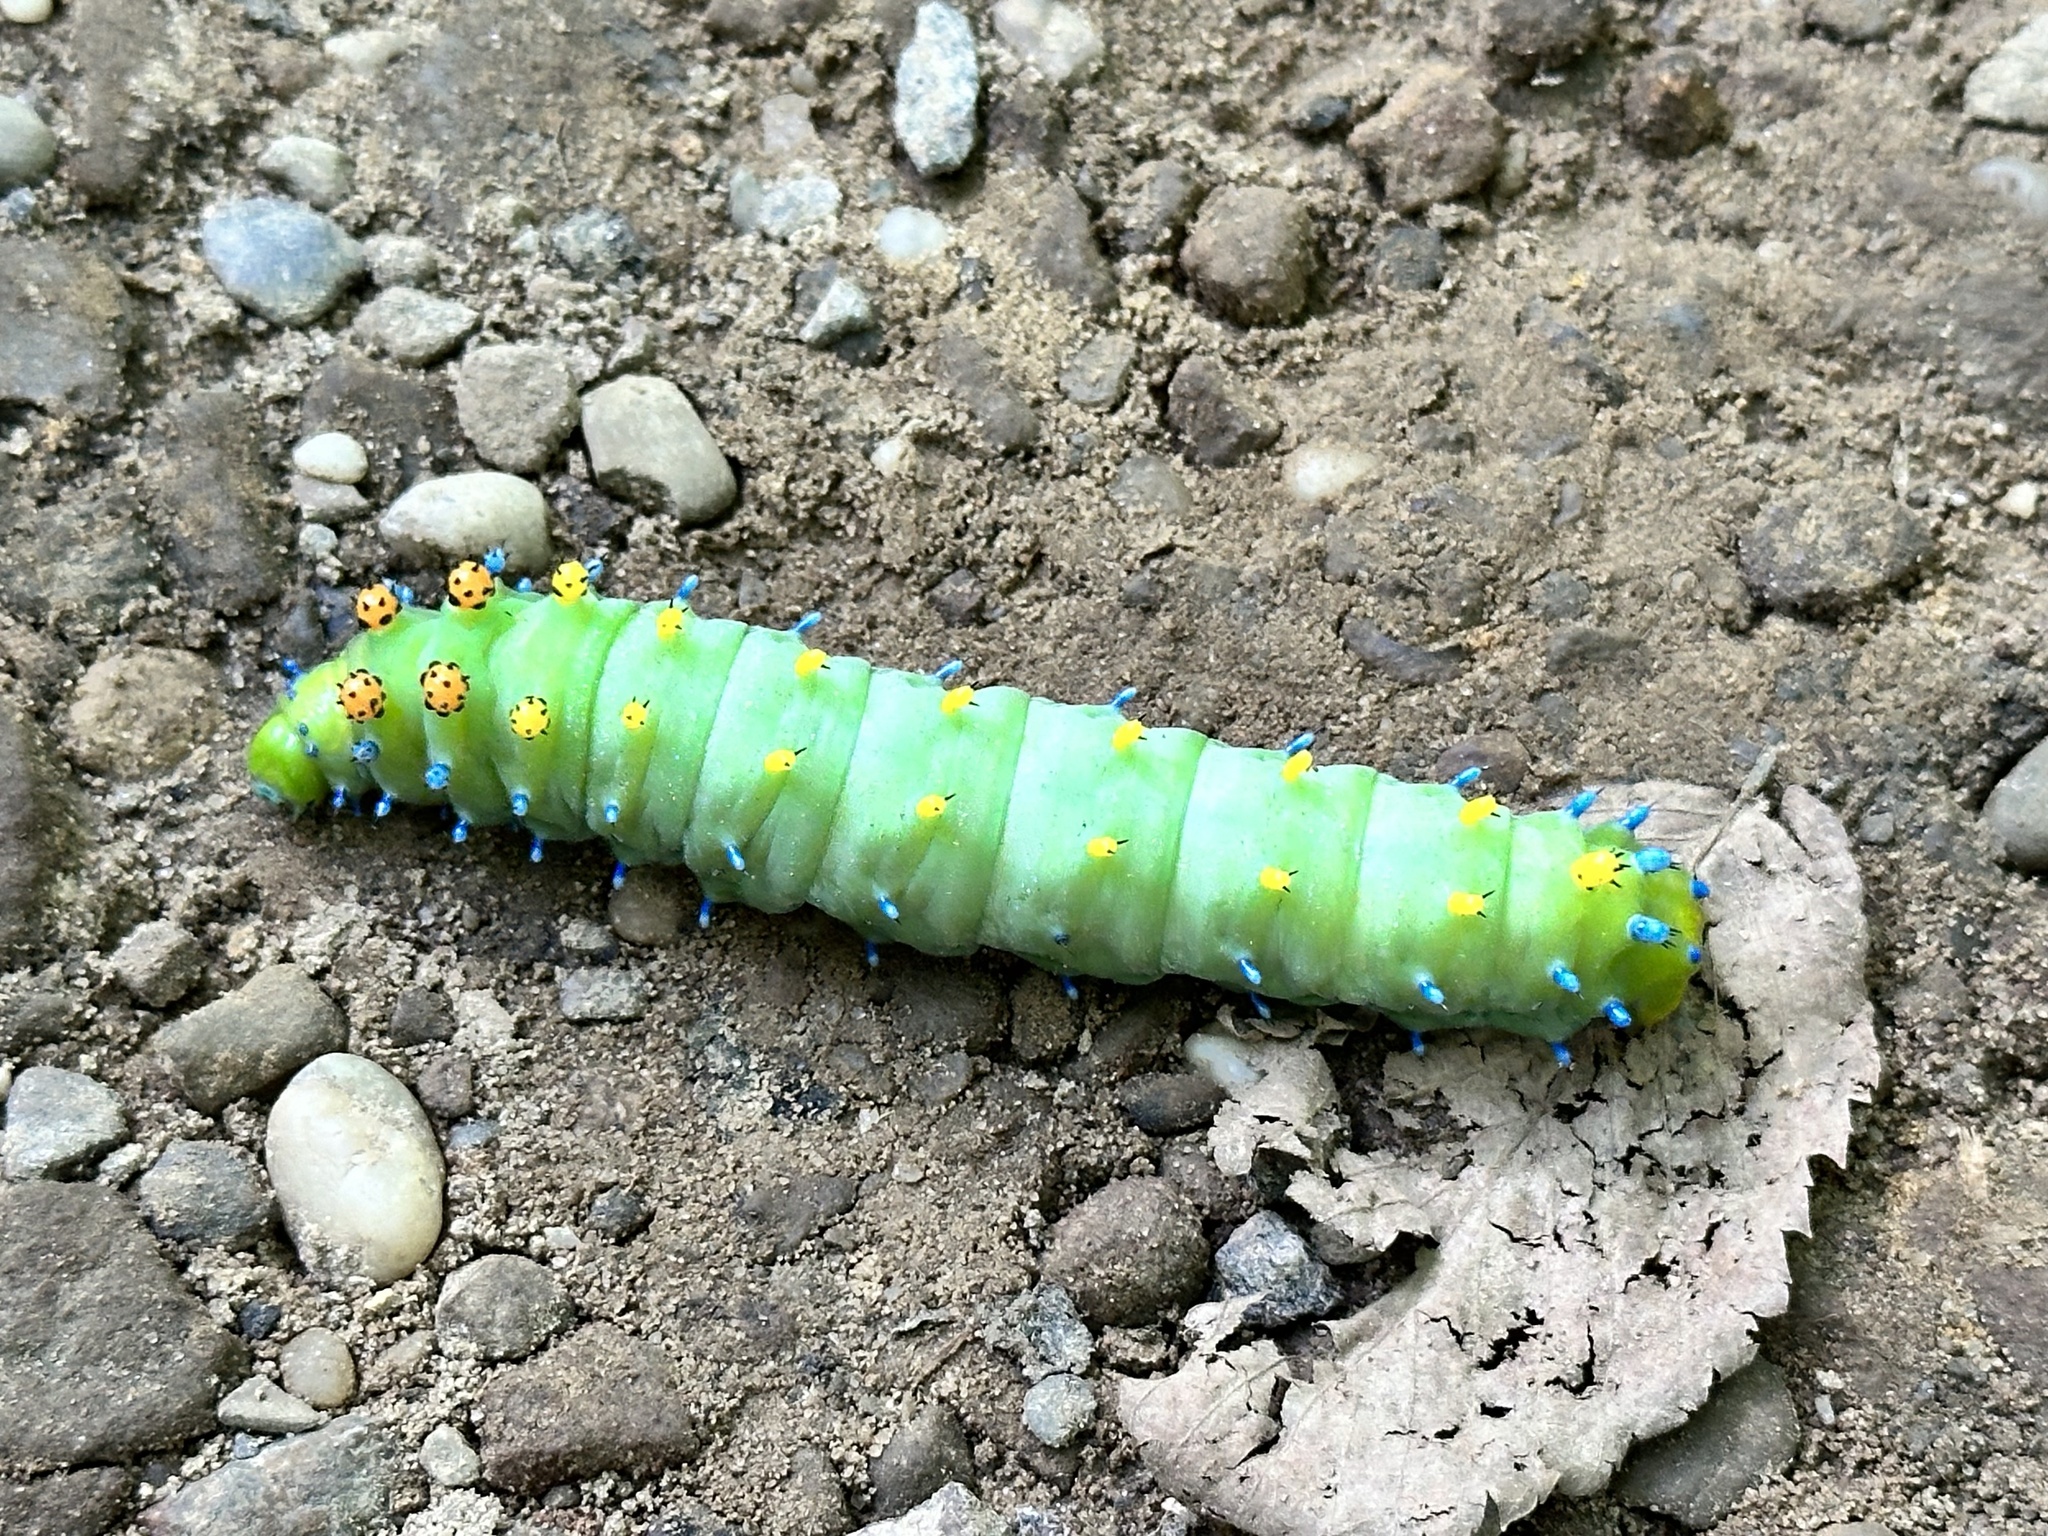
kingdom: Animalia
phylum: Arthropoda
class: Insecta
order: Lepidoptera
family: Saturniidae
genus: Hyalophora
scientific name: Hyalophora cecropia
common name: Cecropia silkmoth
